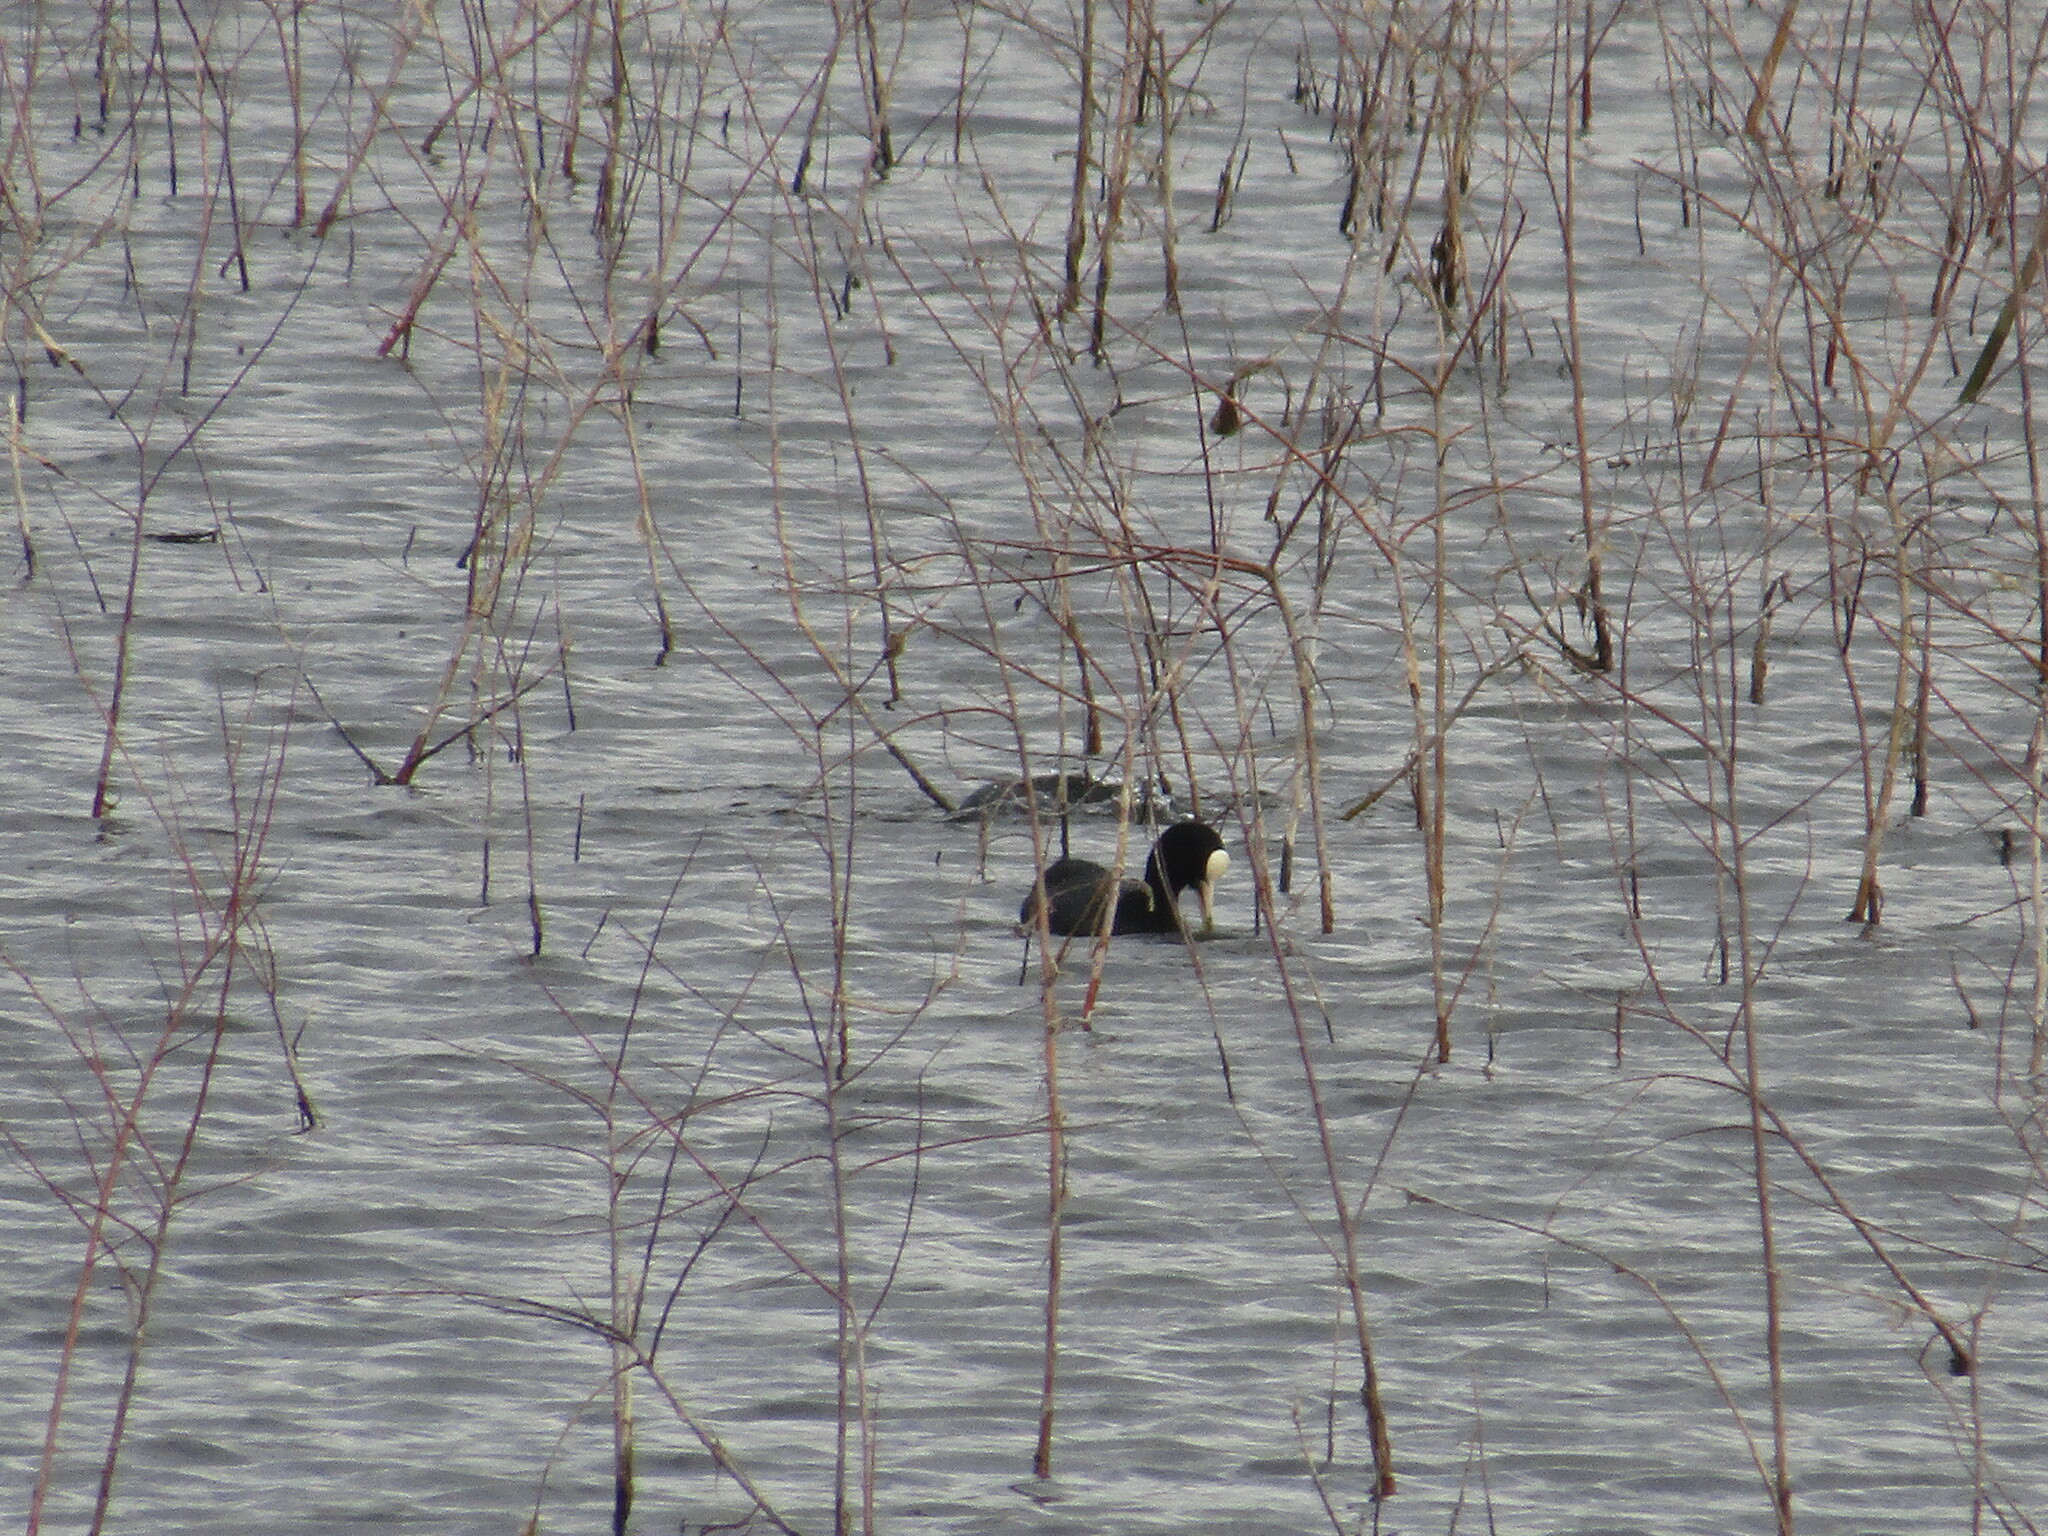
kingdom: Animalia
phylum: Chordata
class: Aves
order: Gruiformes
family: Rallidae
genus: Fulica
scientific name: Fulica atra
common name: Eurasian coot
